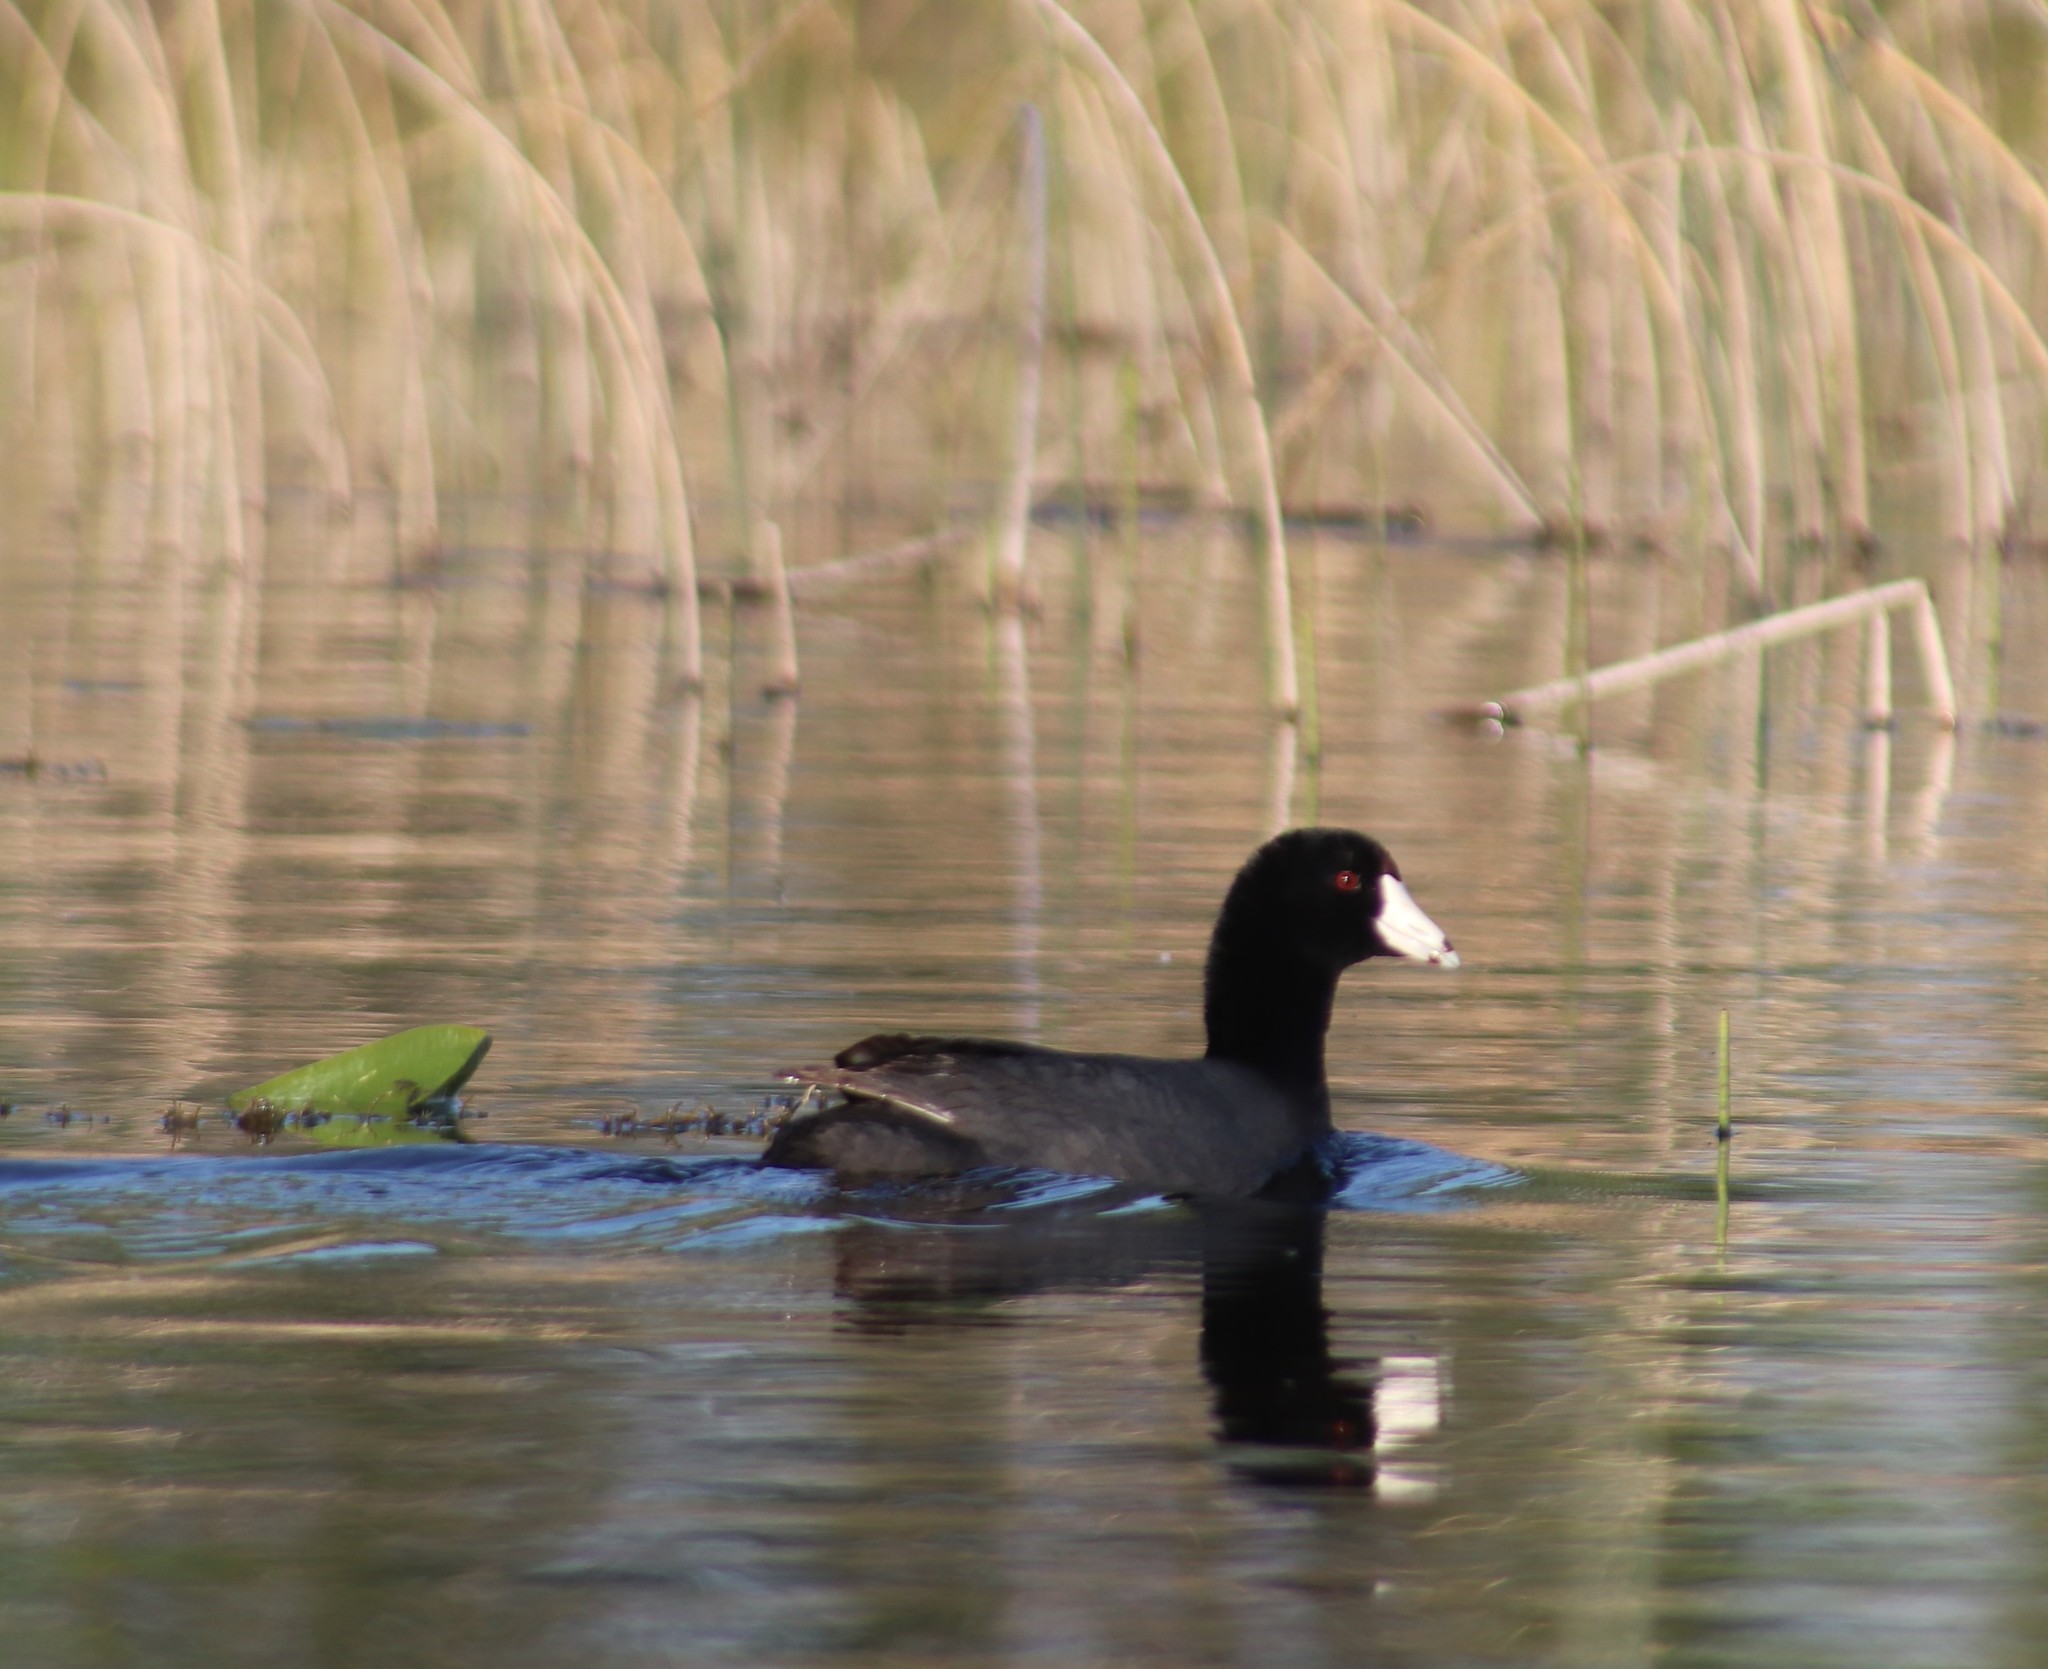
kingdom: Animalia
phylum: Chordata
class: Aves
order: Gruiformes
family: Rallidae
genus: Fulica
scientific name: Fulica americana
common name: American coot
